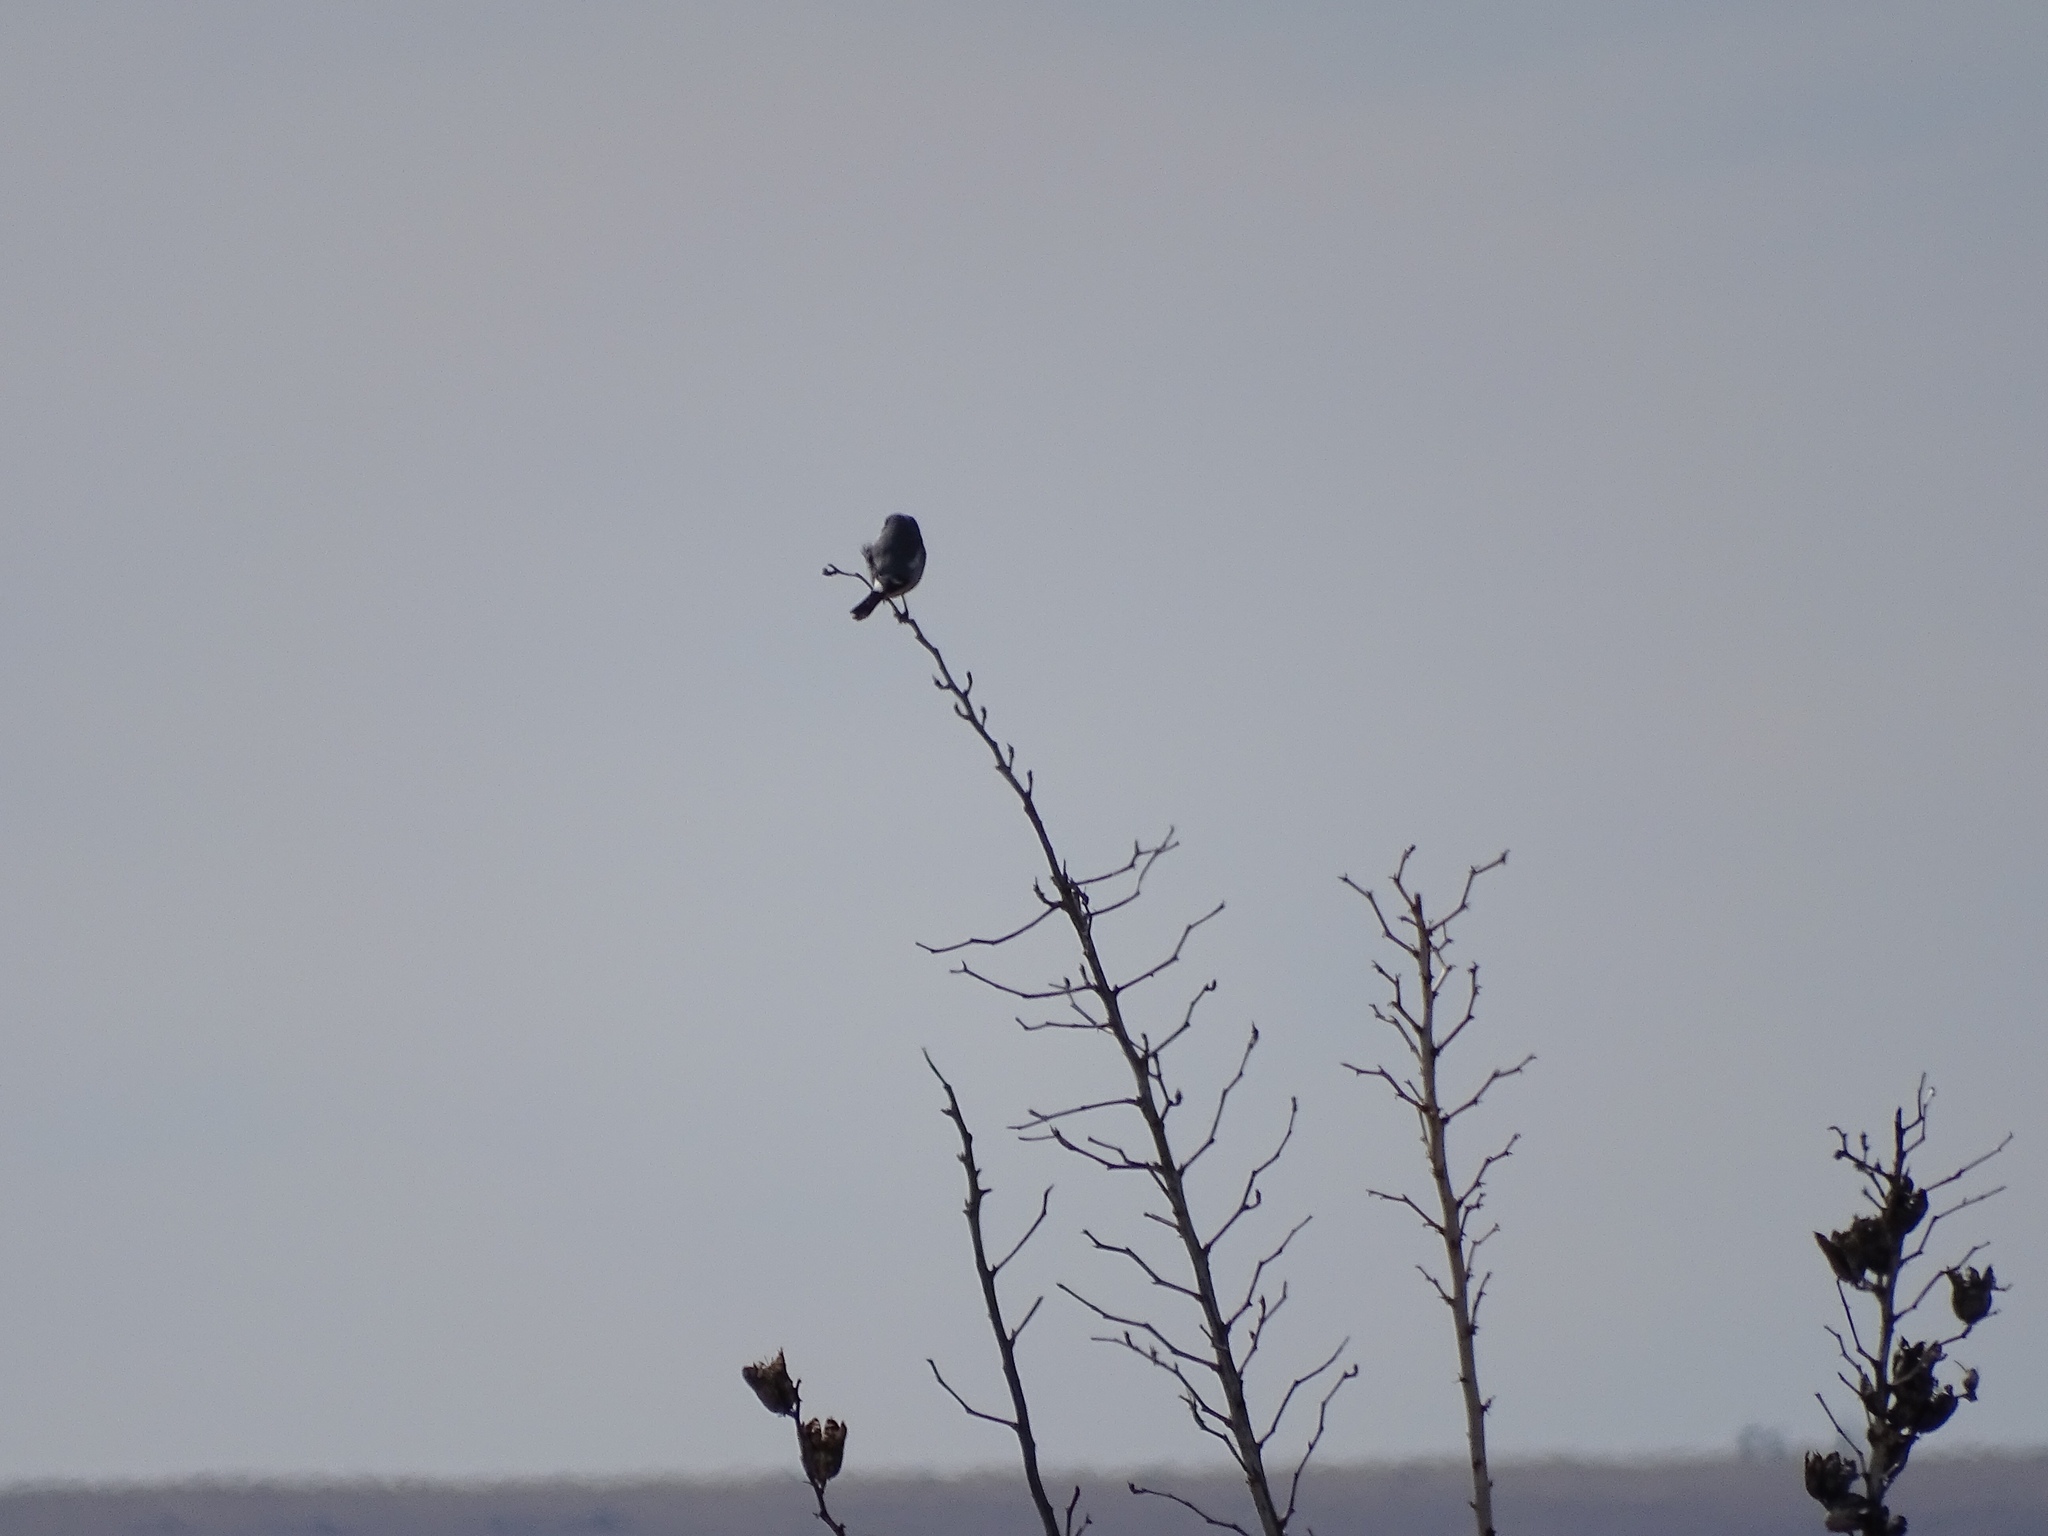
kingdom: Animalia
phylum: Chordata
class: Aves
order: Passeriformes
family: Laniidae
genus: Lanius
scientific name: Lanius ludovicianus
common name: Loggerhead shrike
